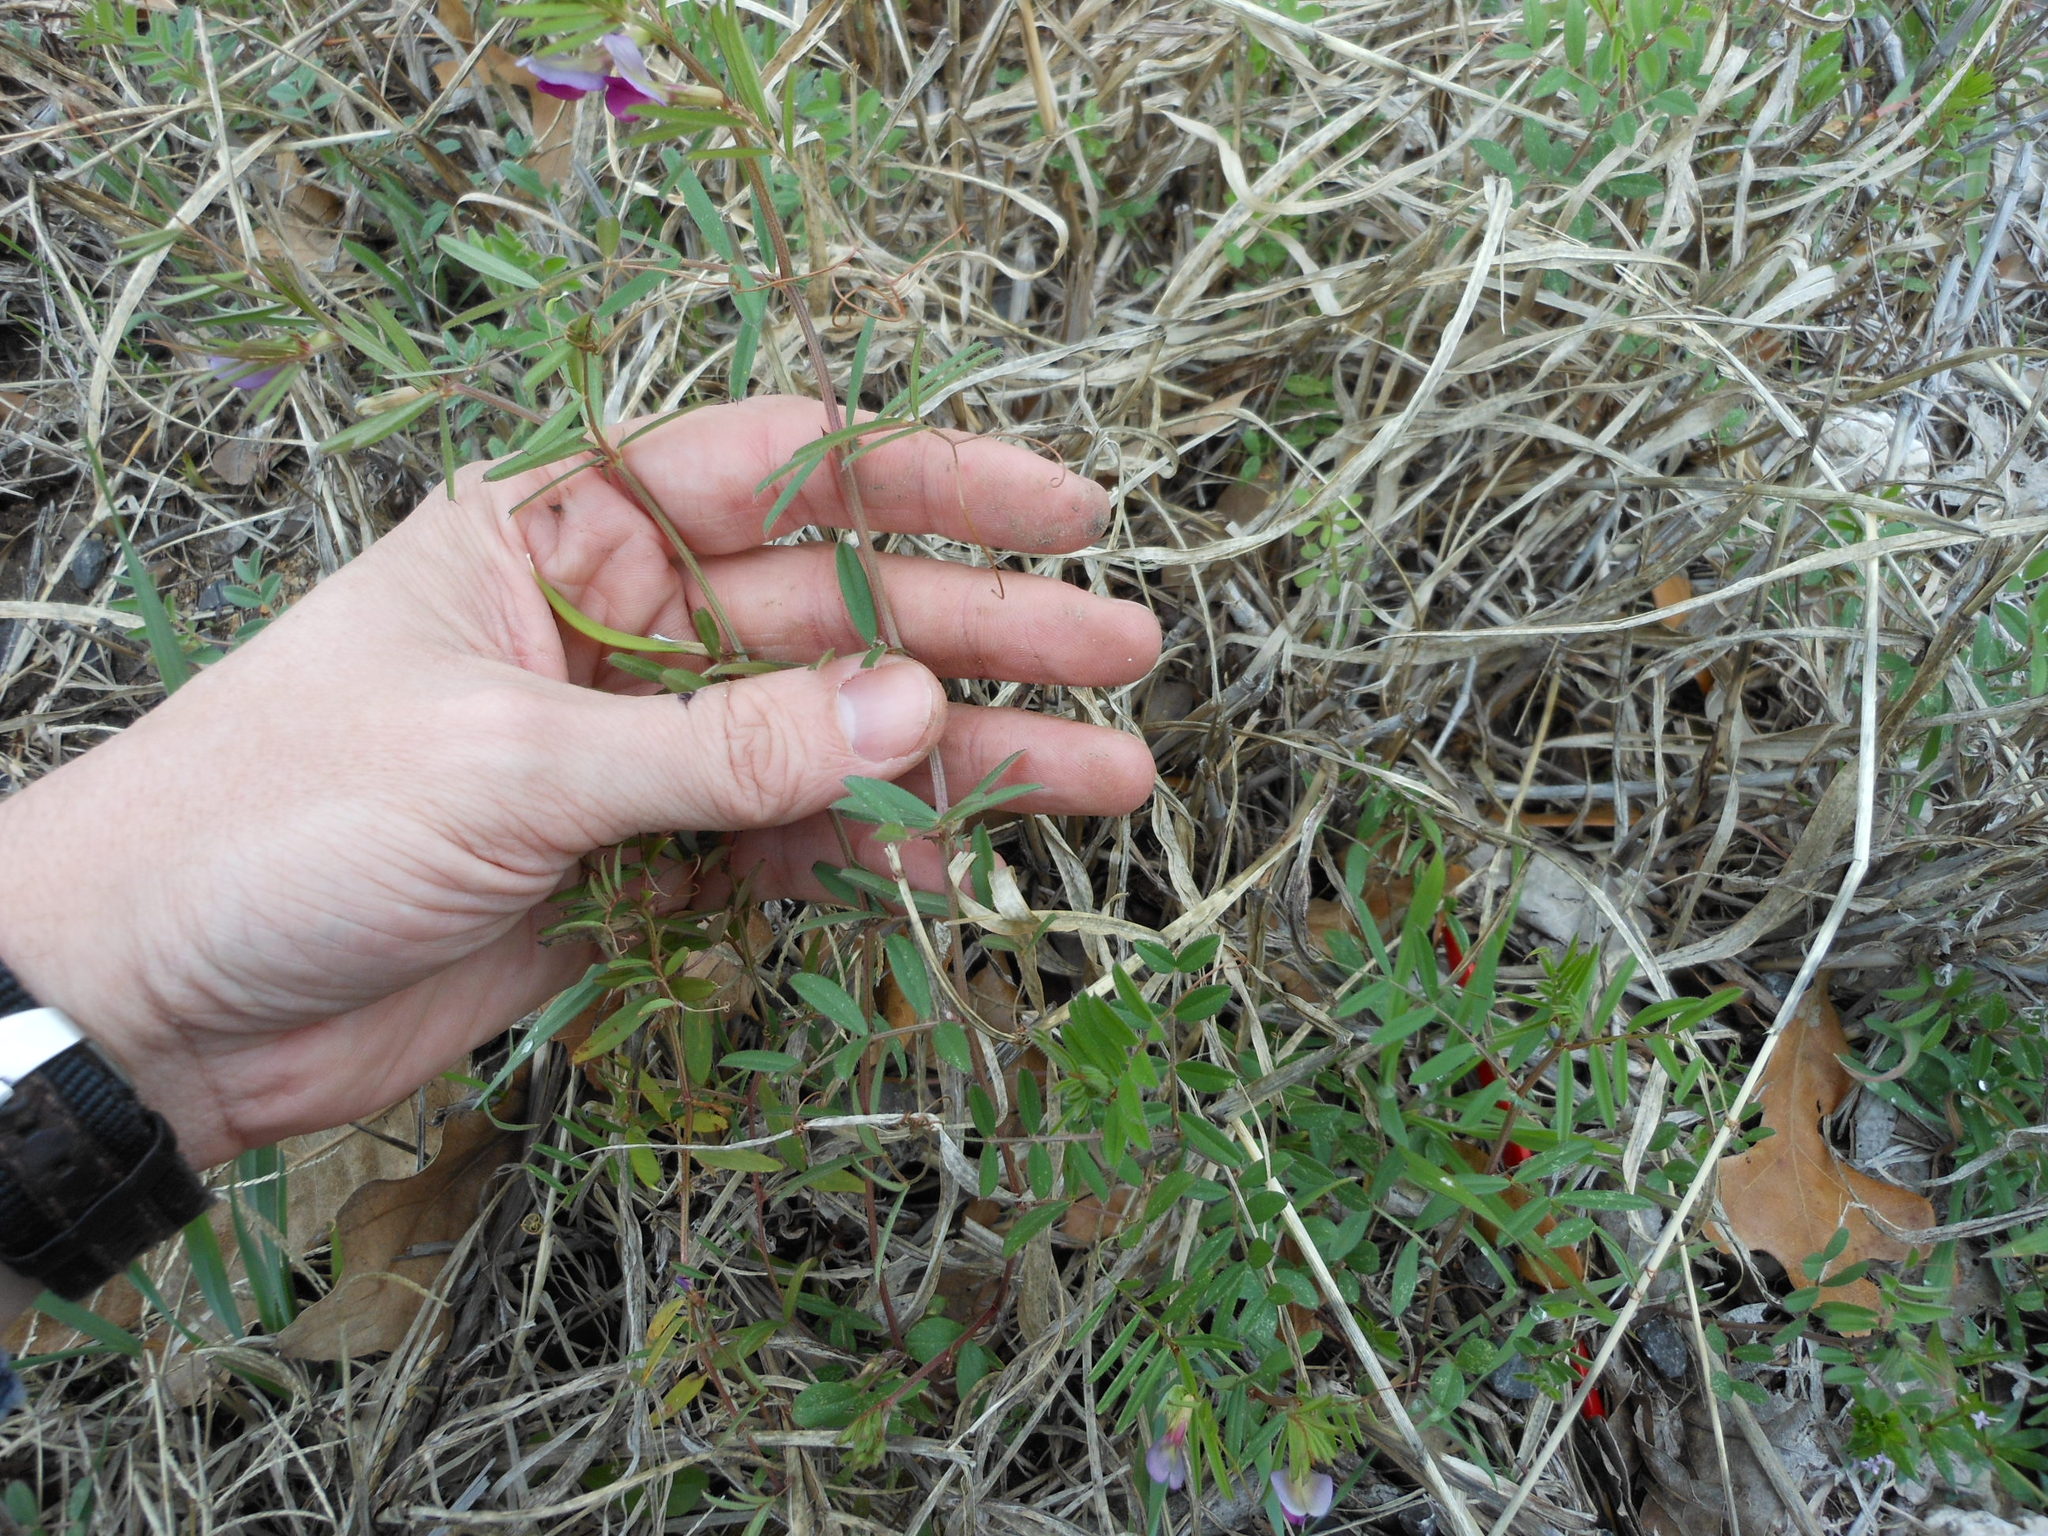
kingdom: Plantae
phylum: Tracheophyta
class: Magnoliopsida
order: Fabales
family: Fabaceae
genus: Vicia
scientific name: Vicia sativa
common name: Garden vetch
